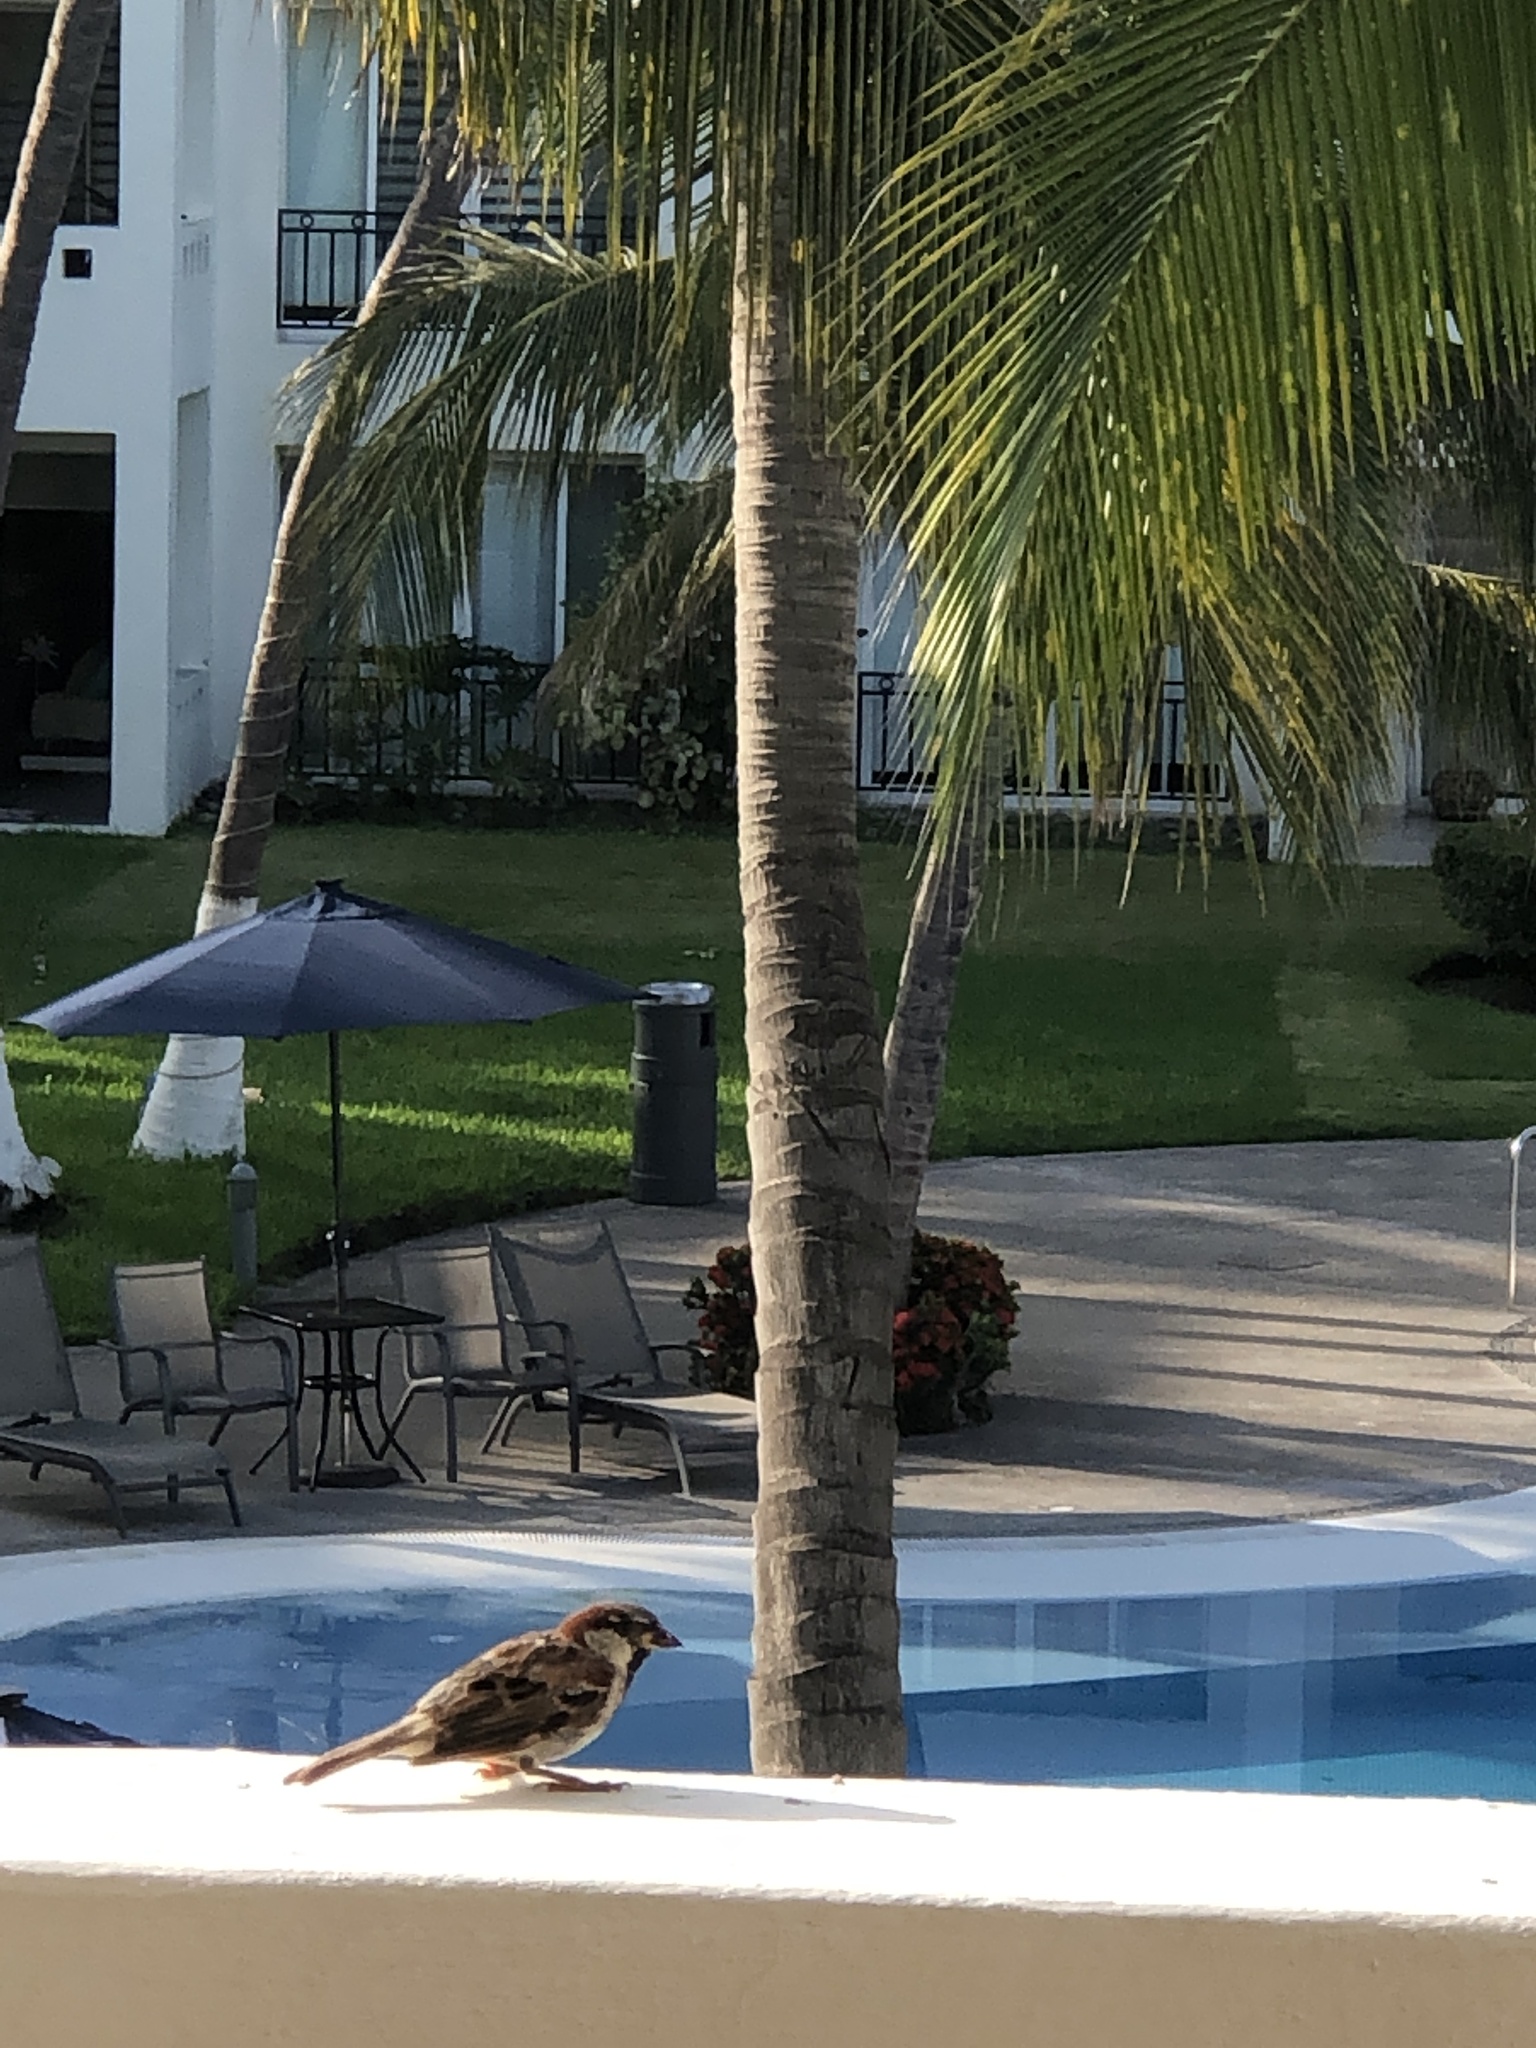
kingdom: Animalia
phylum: Chordata
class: Aves
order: Passeriformes
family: Passeridae
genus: Passer
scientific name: Passer domesticus
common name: House sparrow
